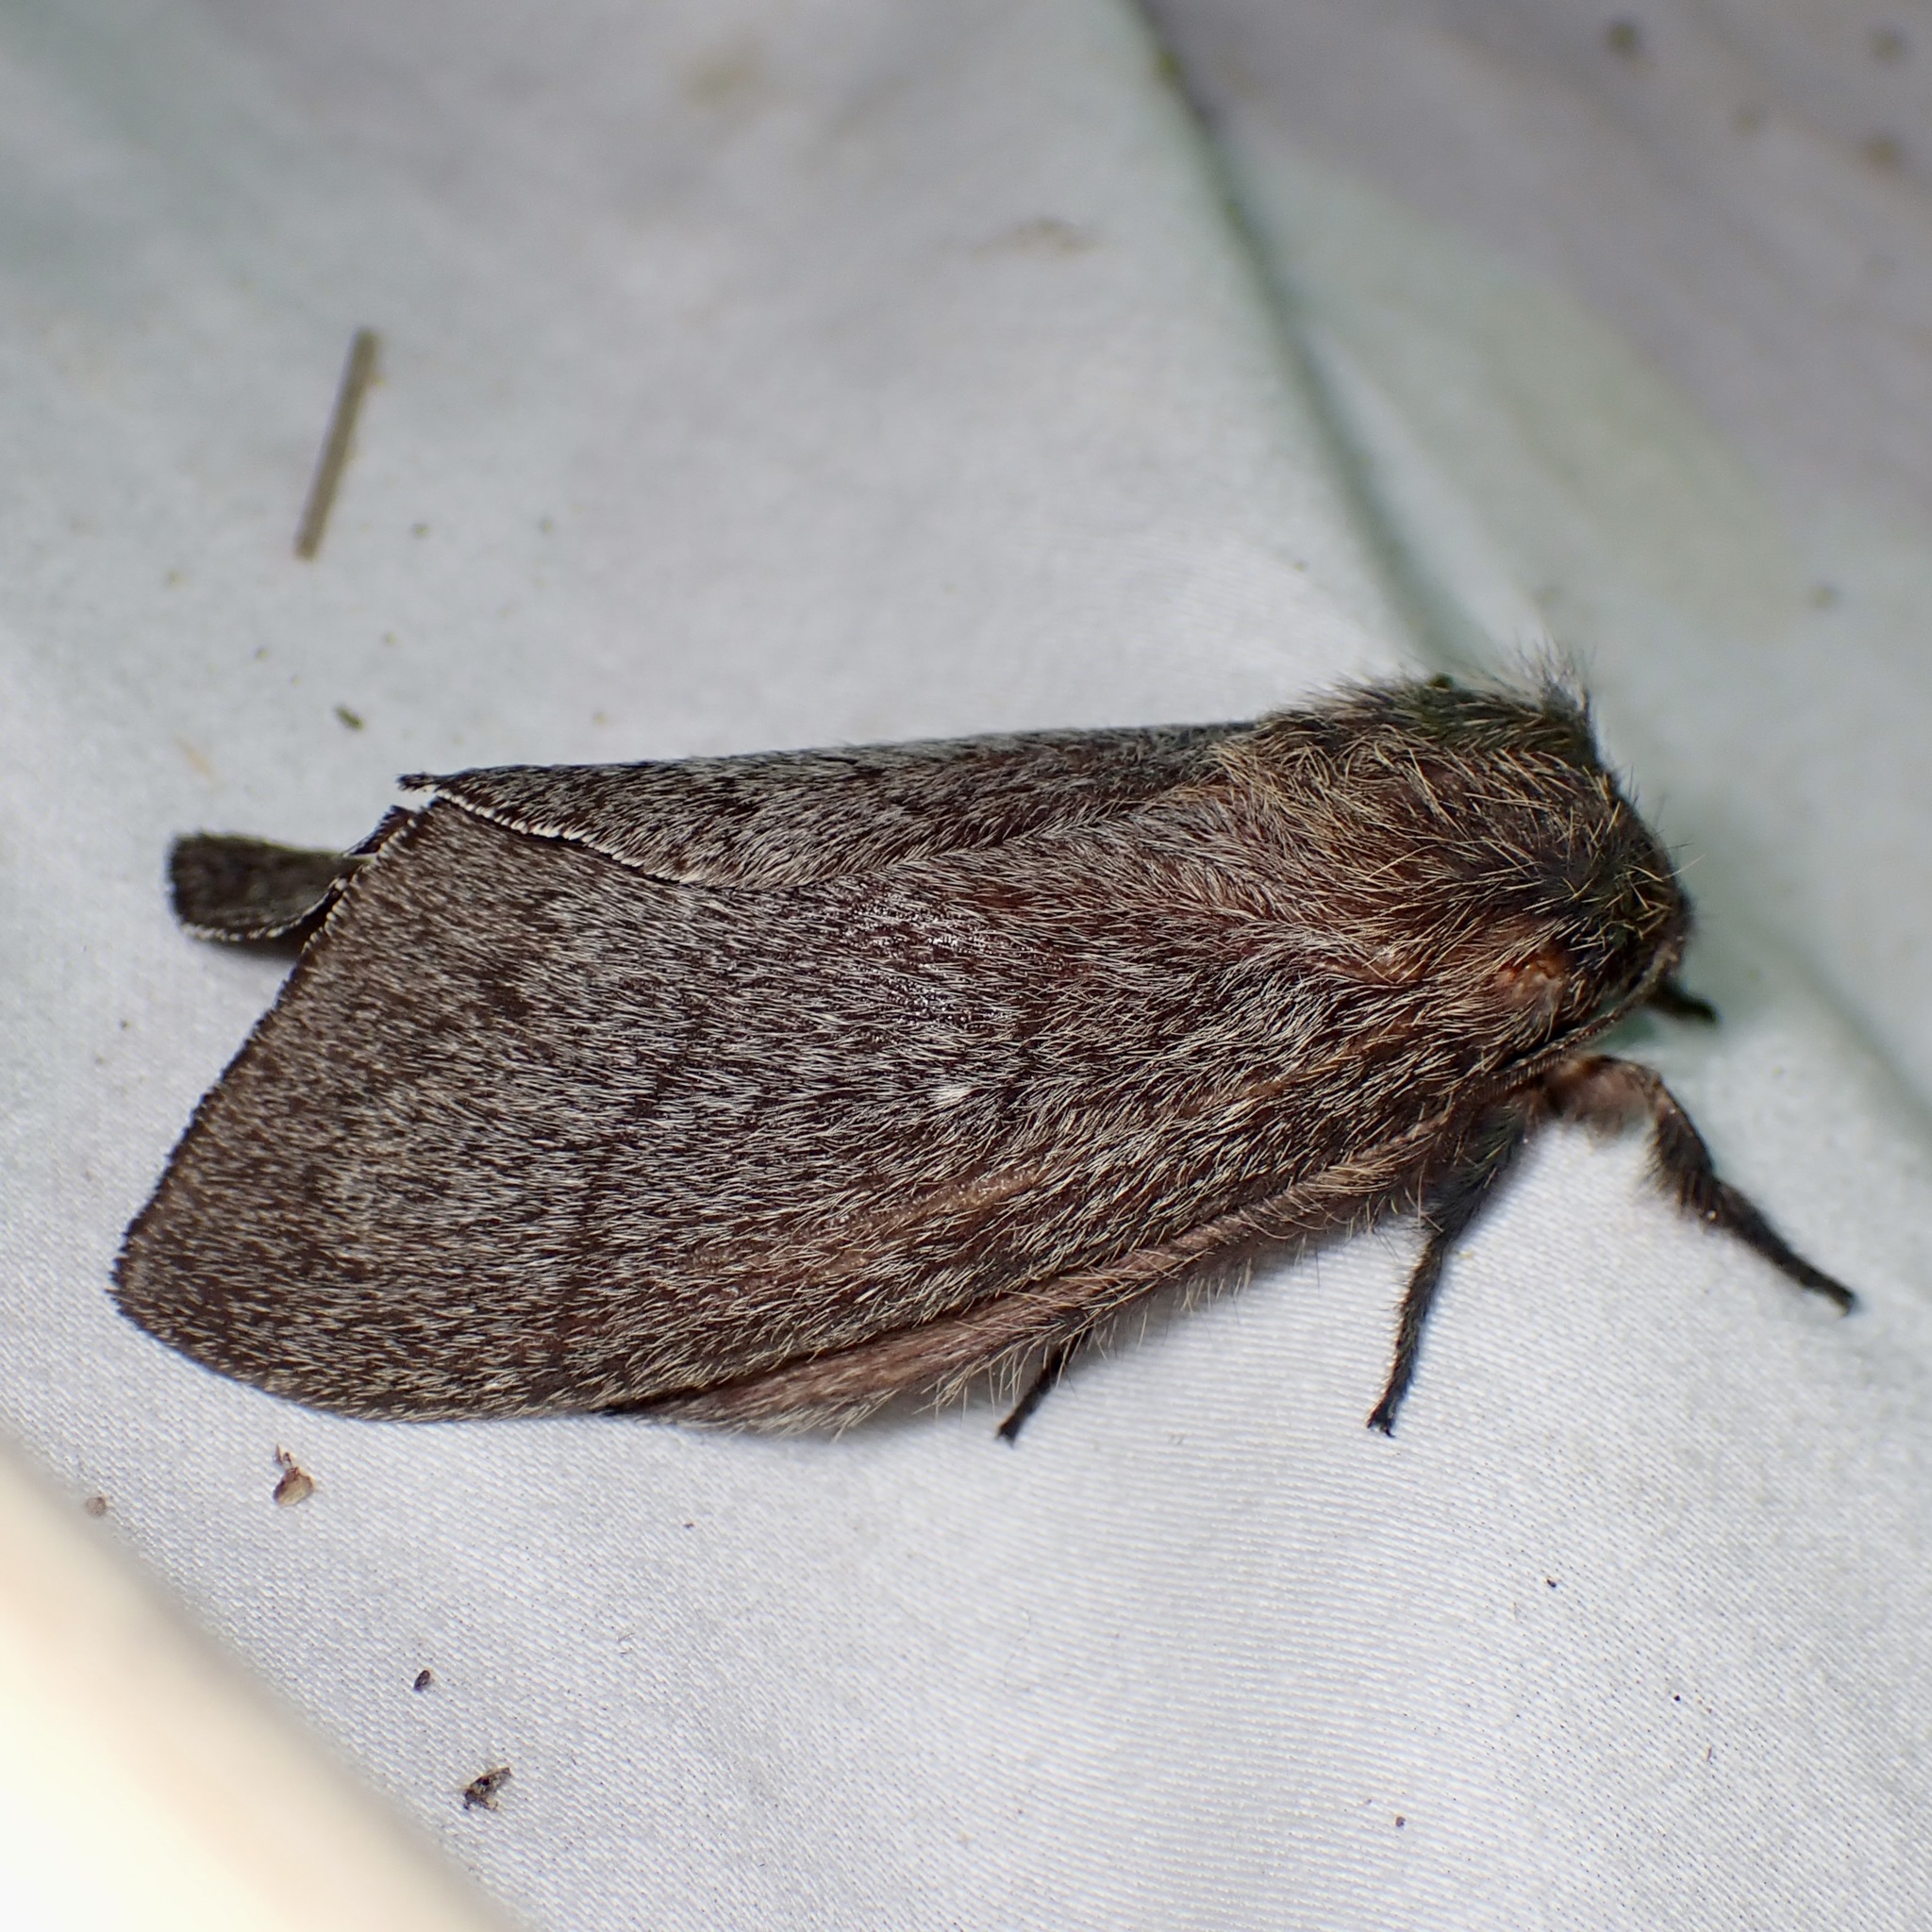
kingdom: Animalia
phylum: Arthropoda
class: Insecta
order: Lepidoptera
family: Lasiocampidae
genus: Gloveria
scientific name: Gloveria gargamelle
